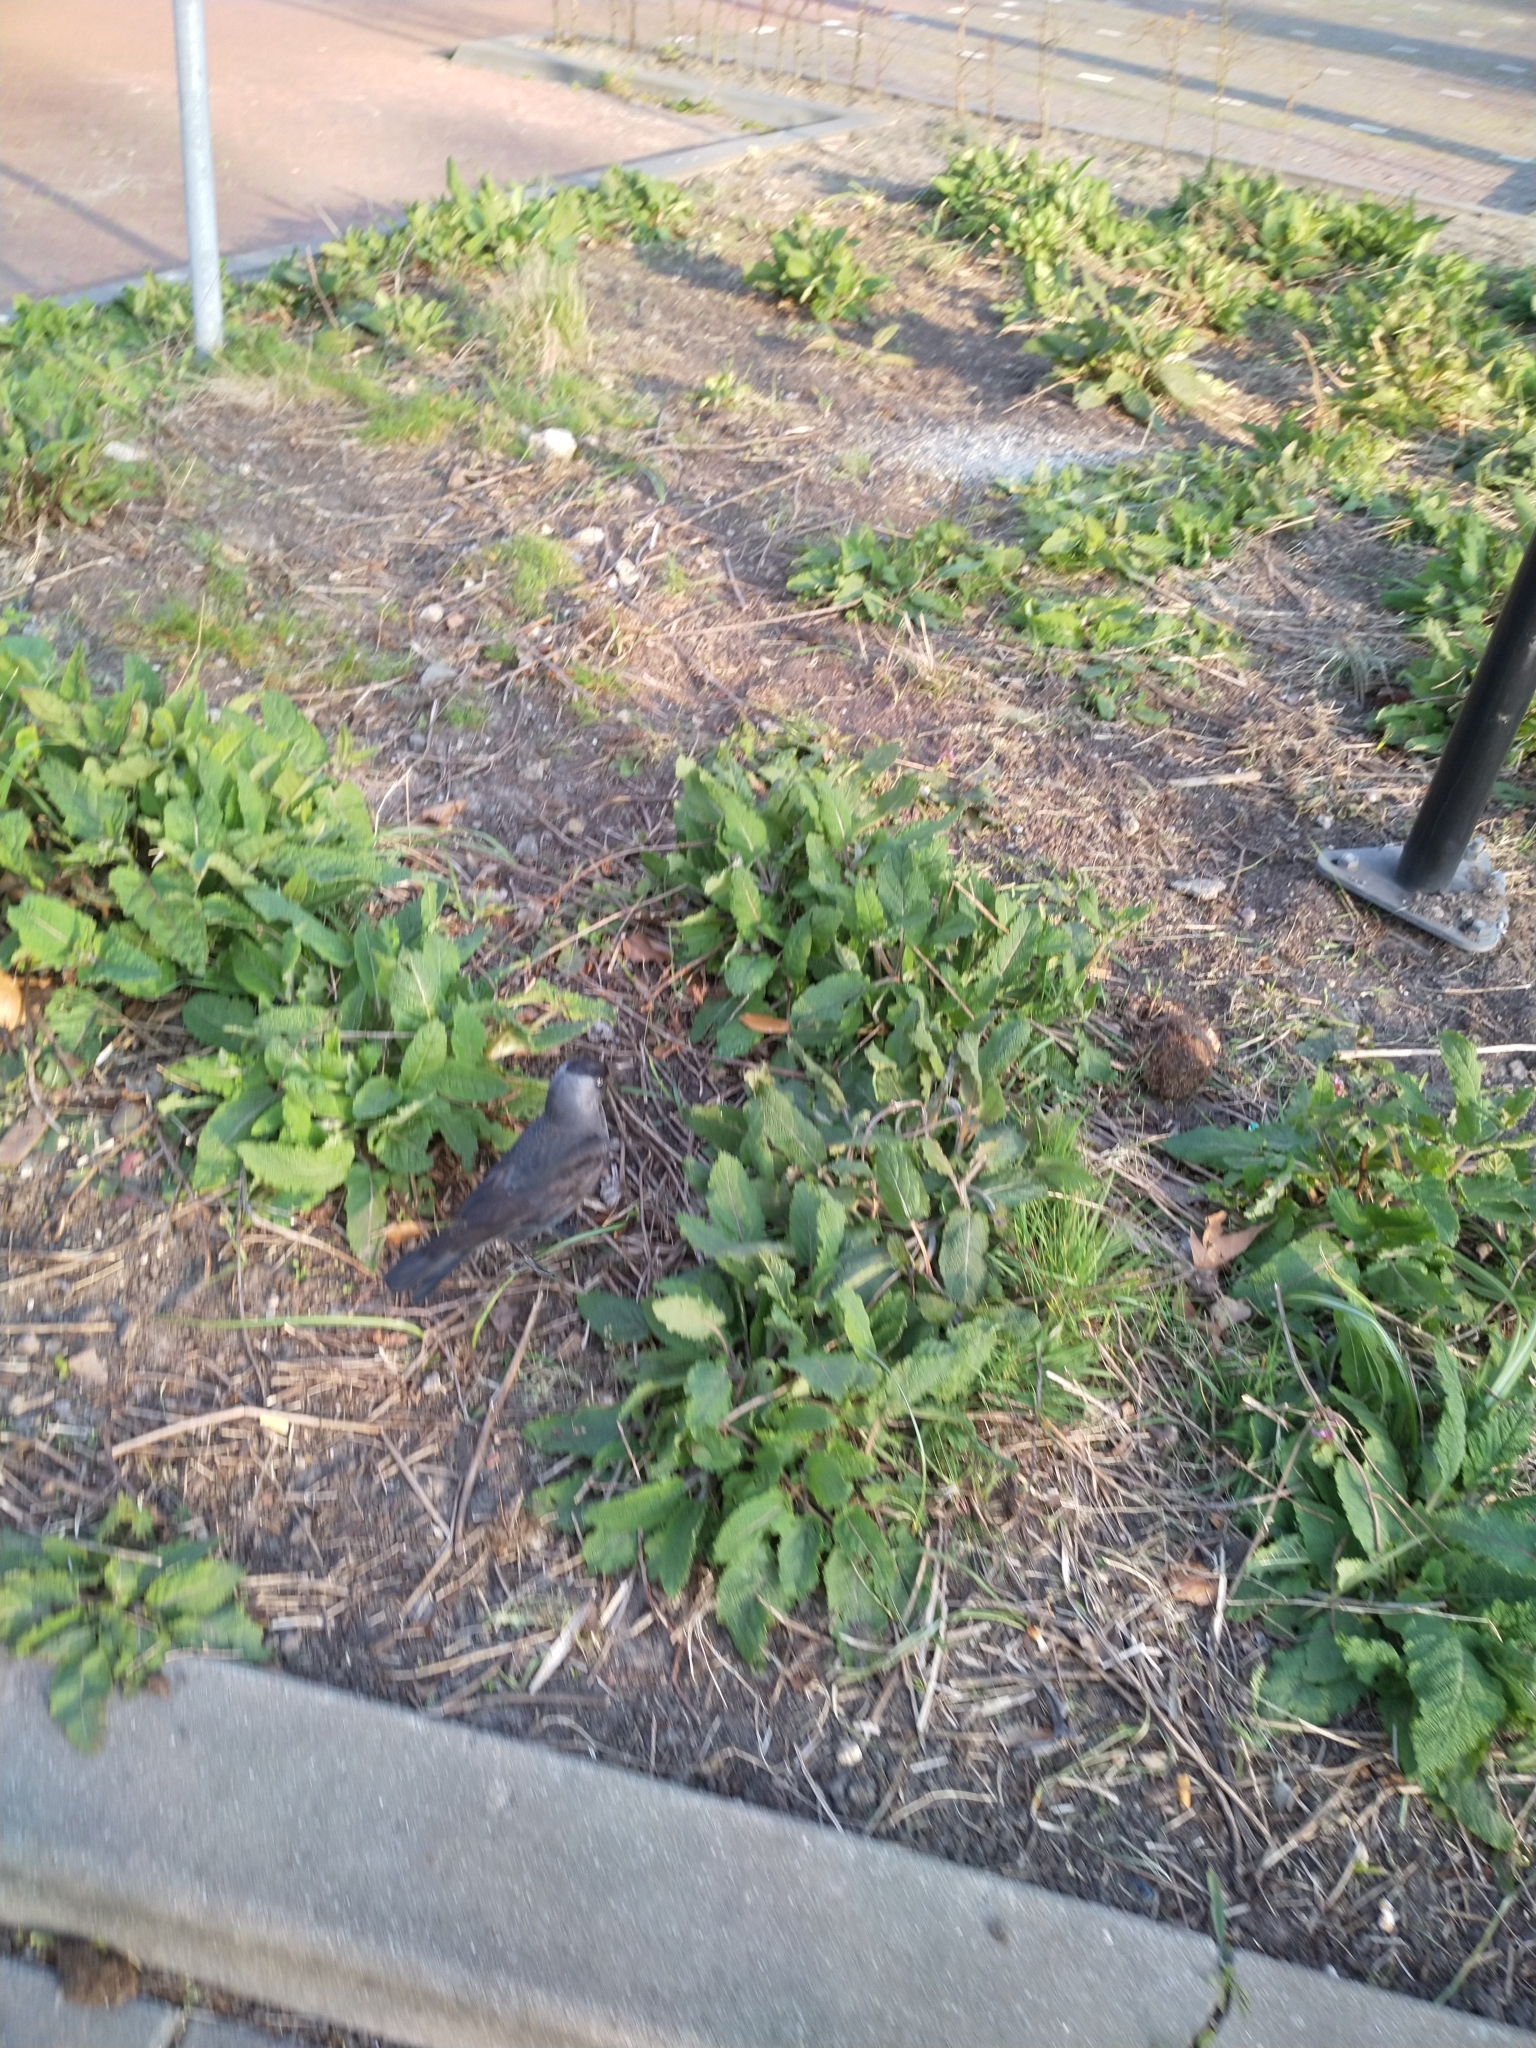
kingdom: Animalia
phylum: Chordata
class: Aves
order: Passeriformes
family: Corvidae
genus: Coloeus
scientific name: Coloeus monedula
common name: Western jackdaw
